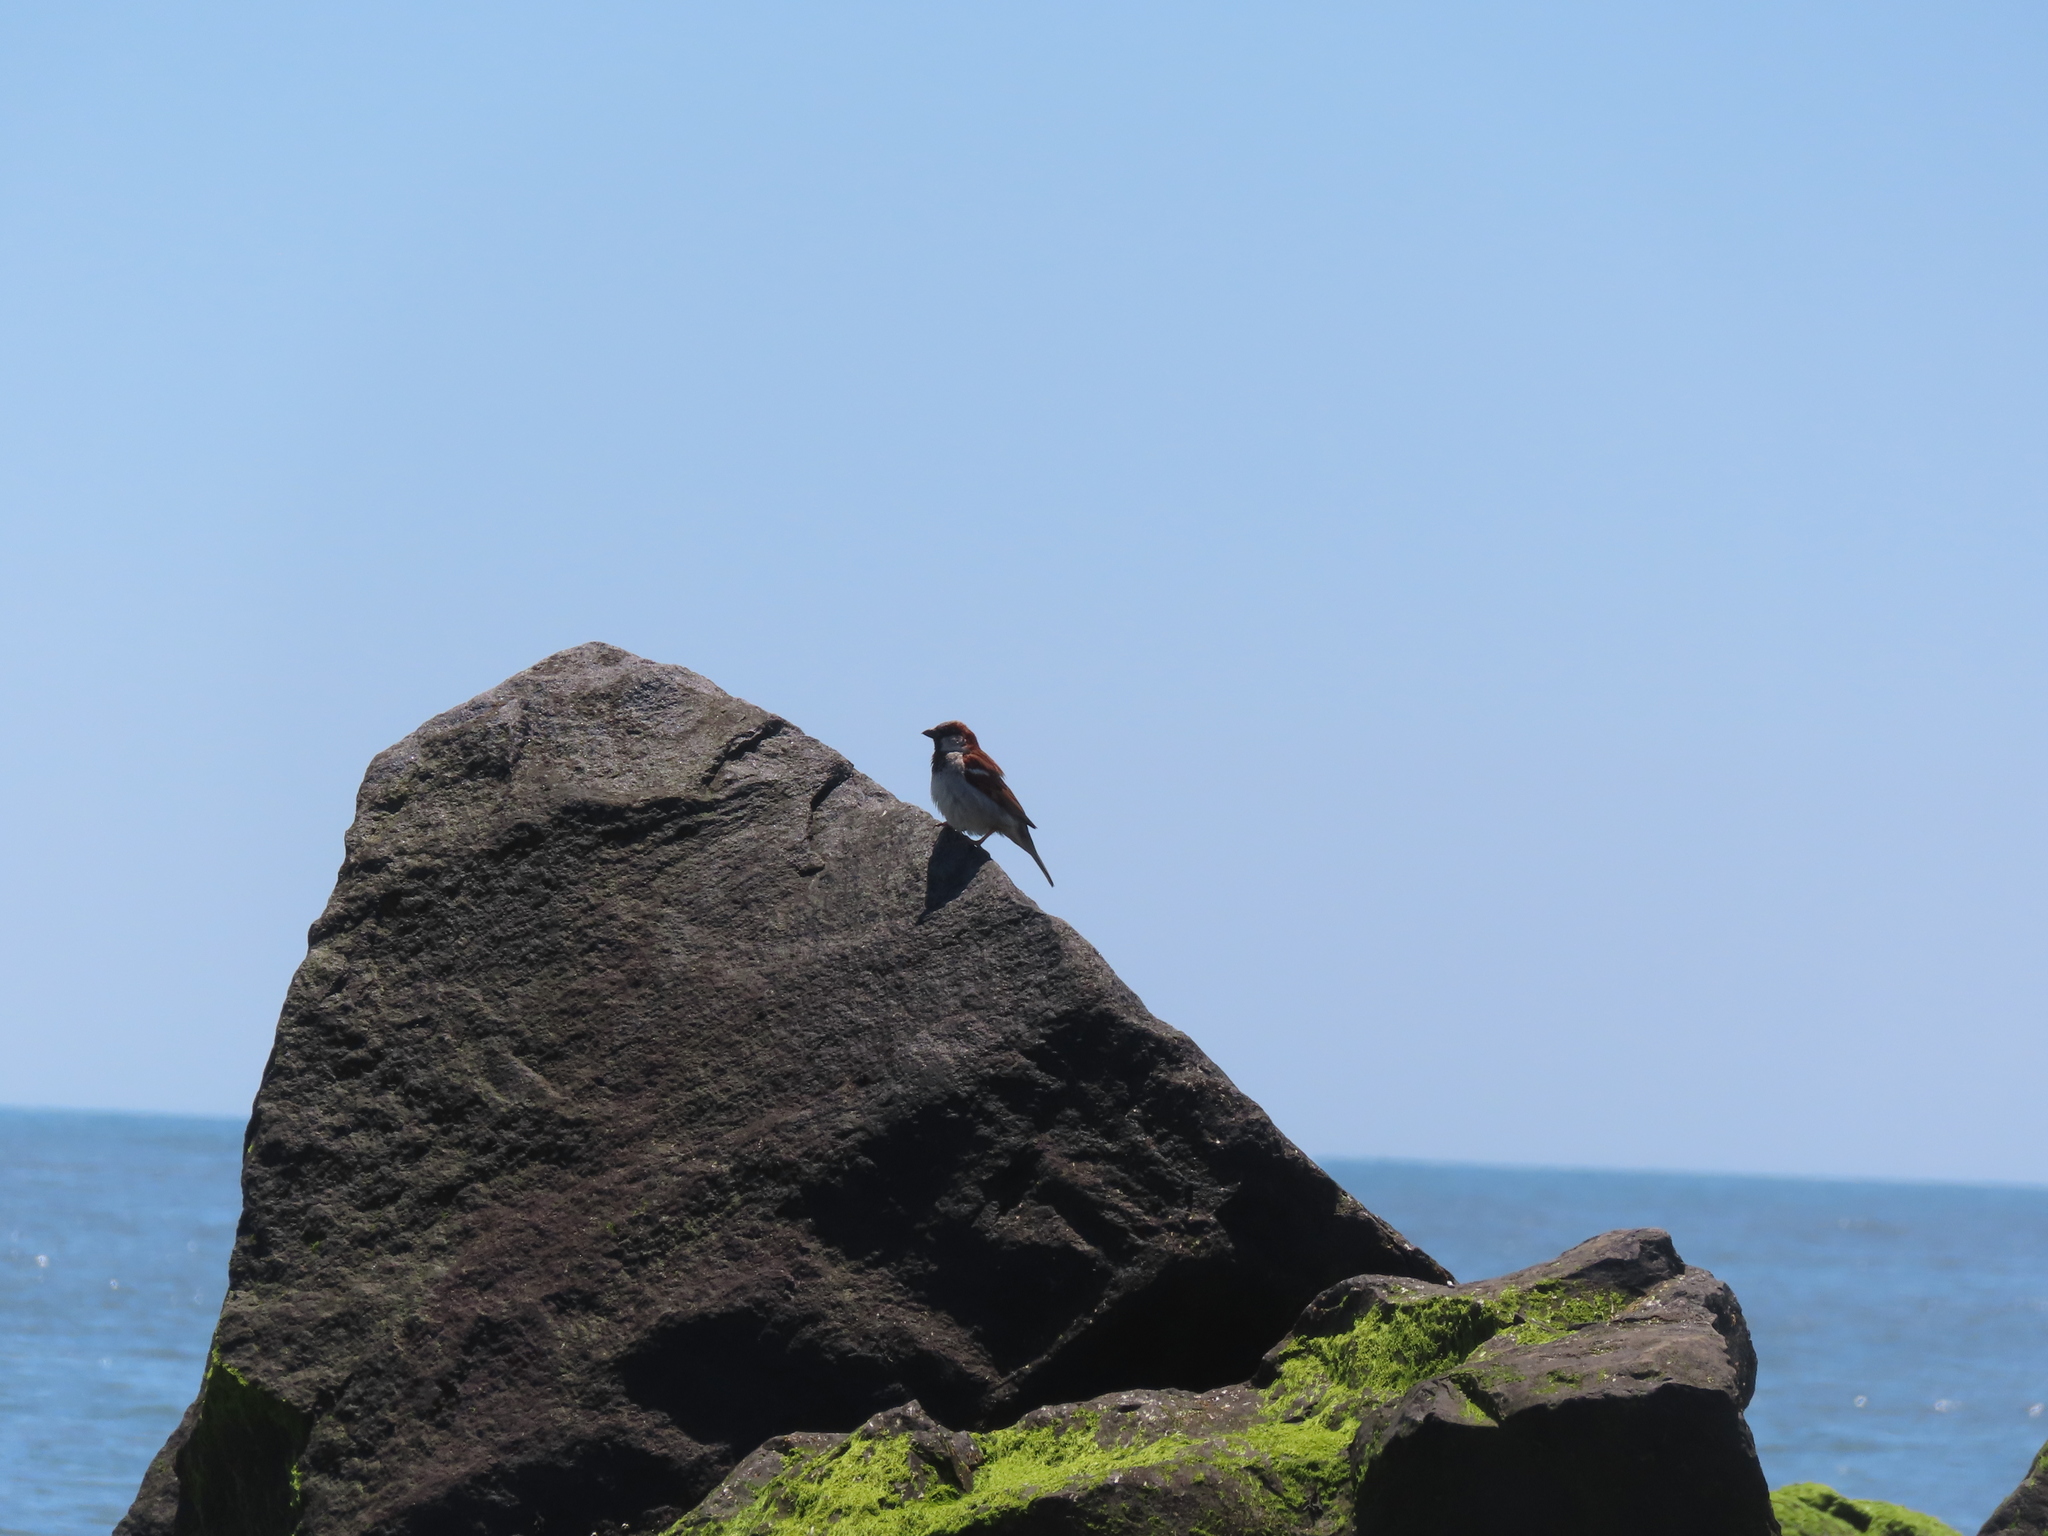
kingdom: Animalia
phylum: Chordata
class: Aves
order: Passeriformes
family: Passeridae
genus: Passer
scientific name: Passer domesticus
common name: House sparrow
